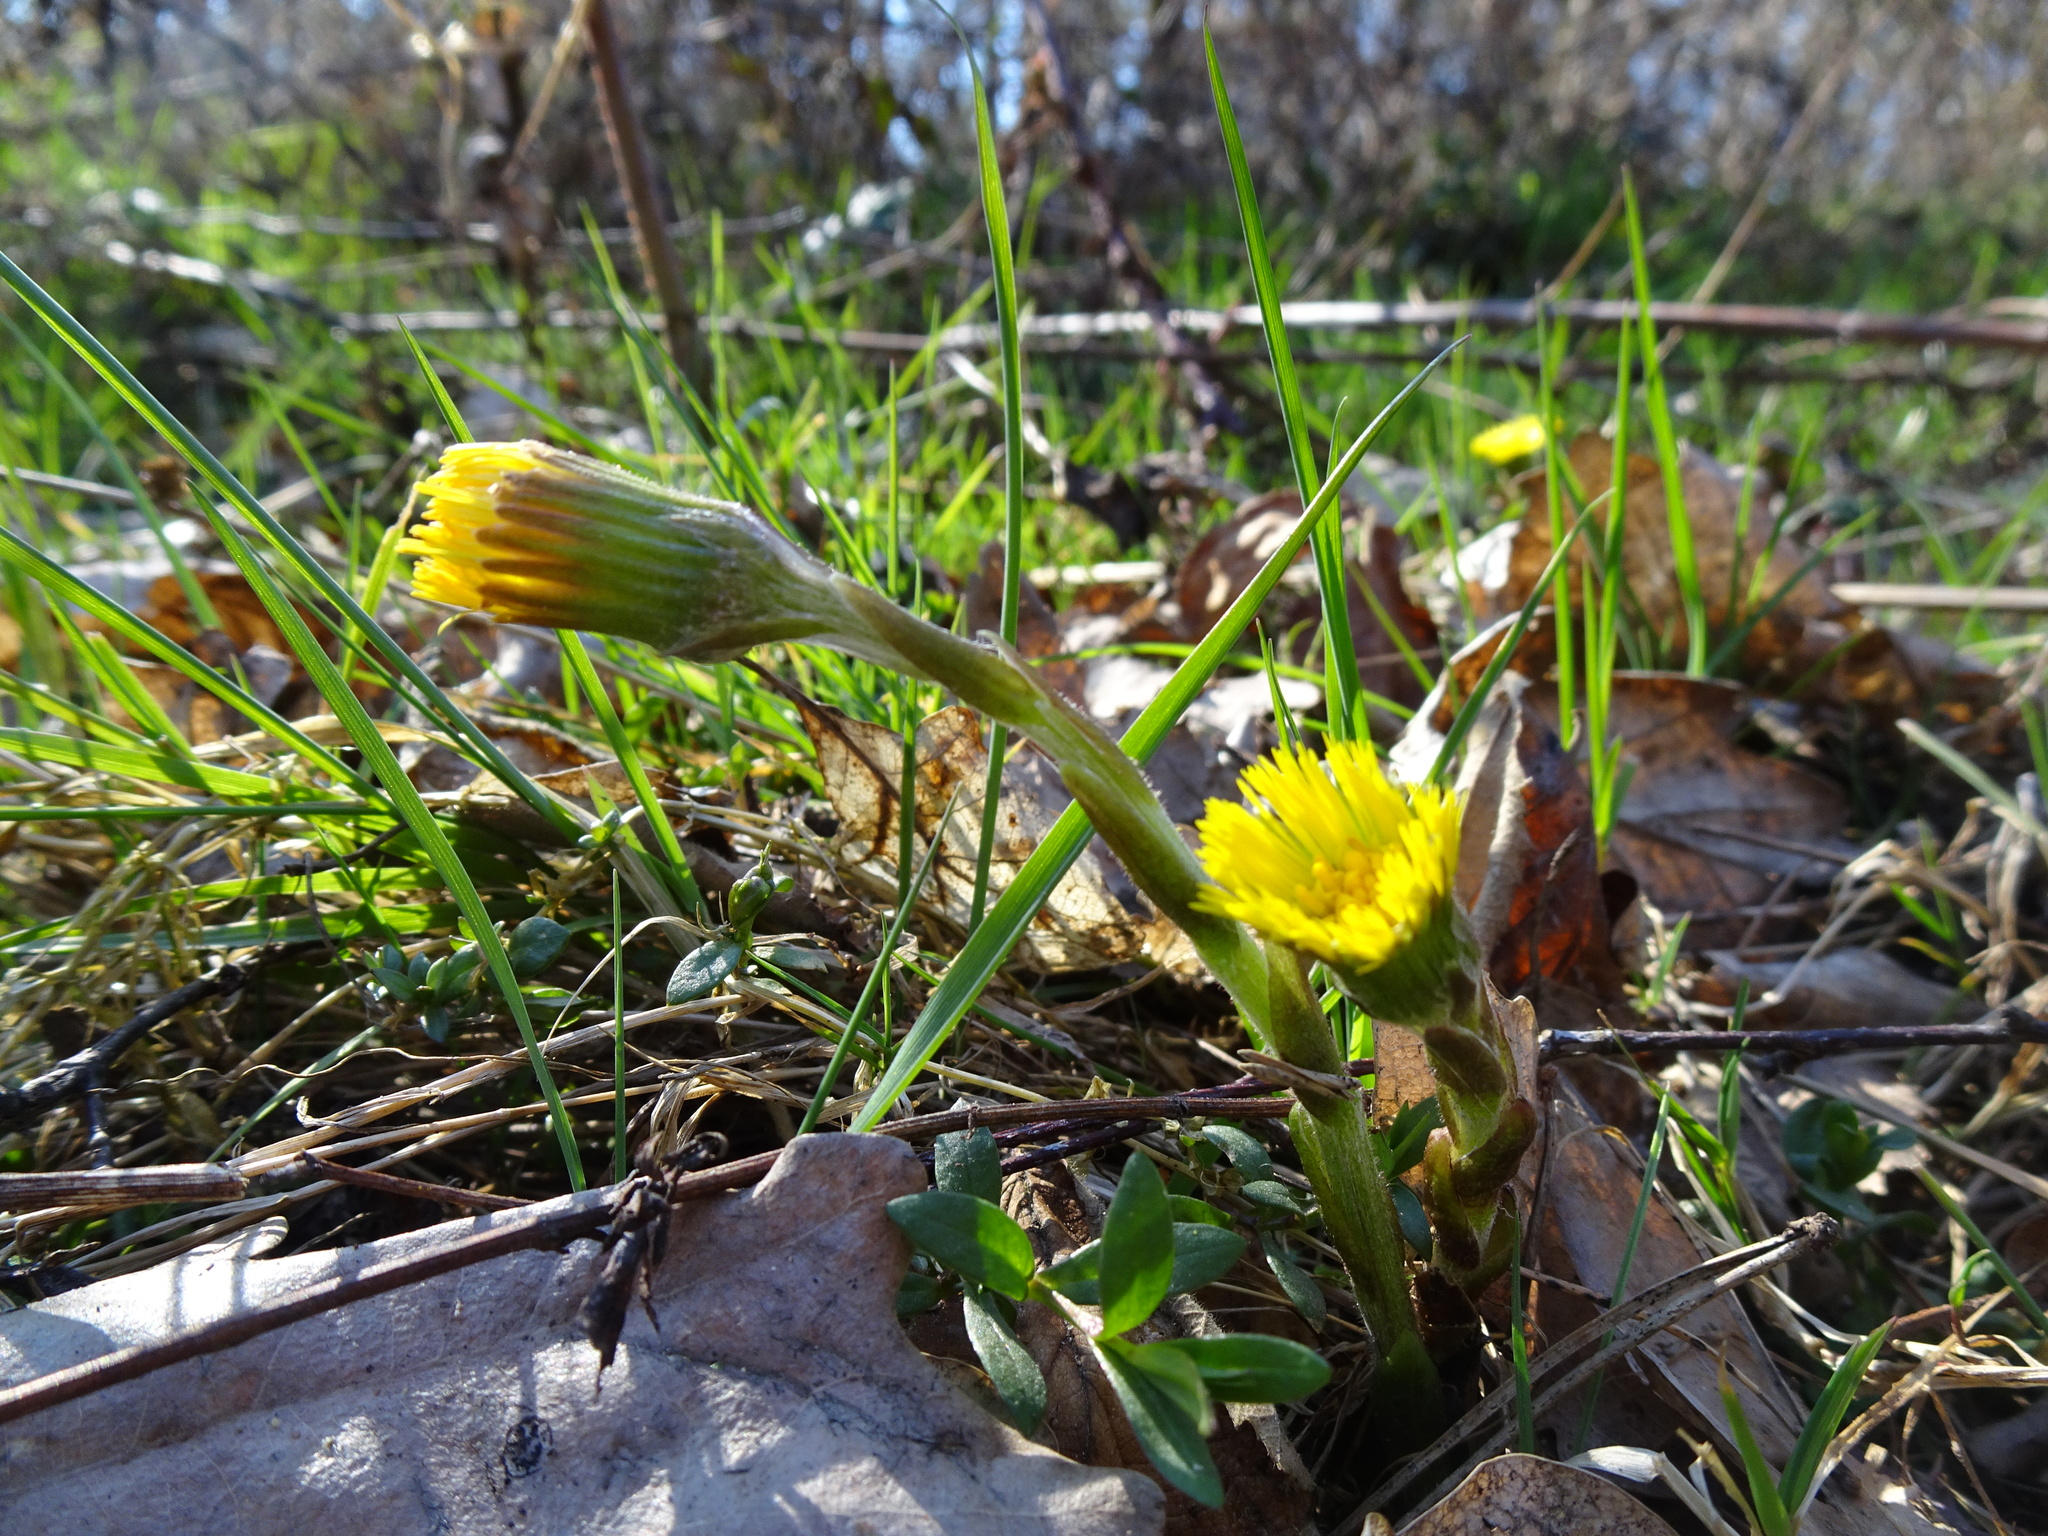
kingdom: Plantae
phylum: Tracheophyta
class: Magnoliopsida
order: Asterales
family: Asteraceae
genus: Tussilago
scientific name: Tussilago farfara
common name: Coltsfoot
